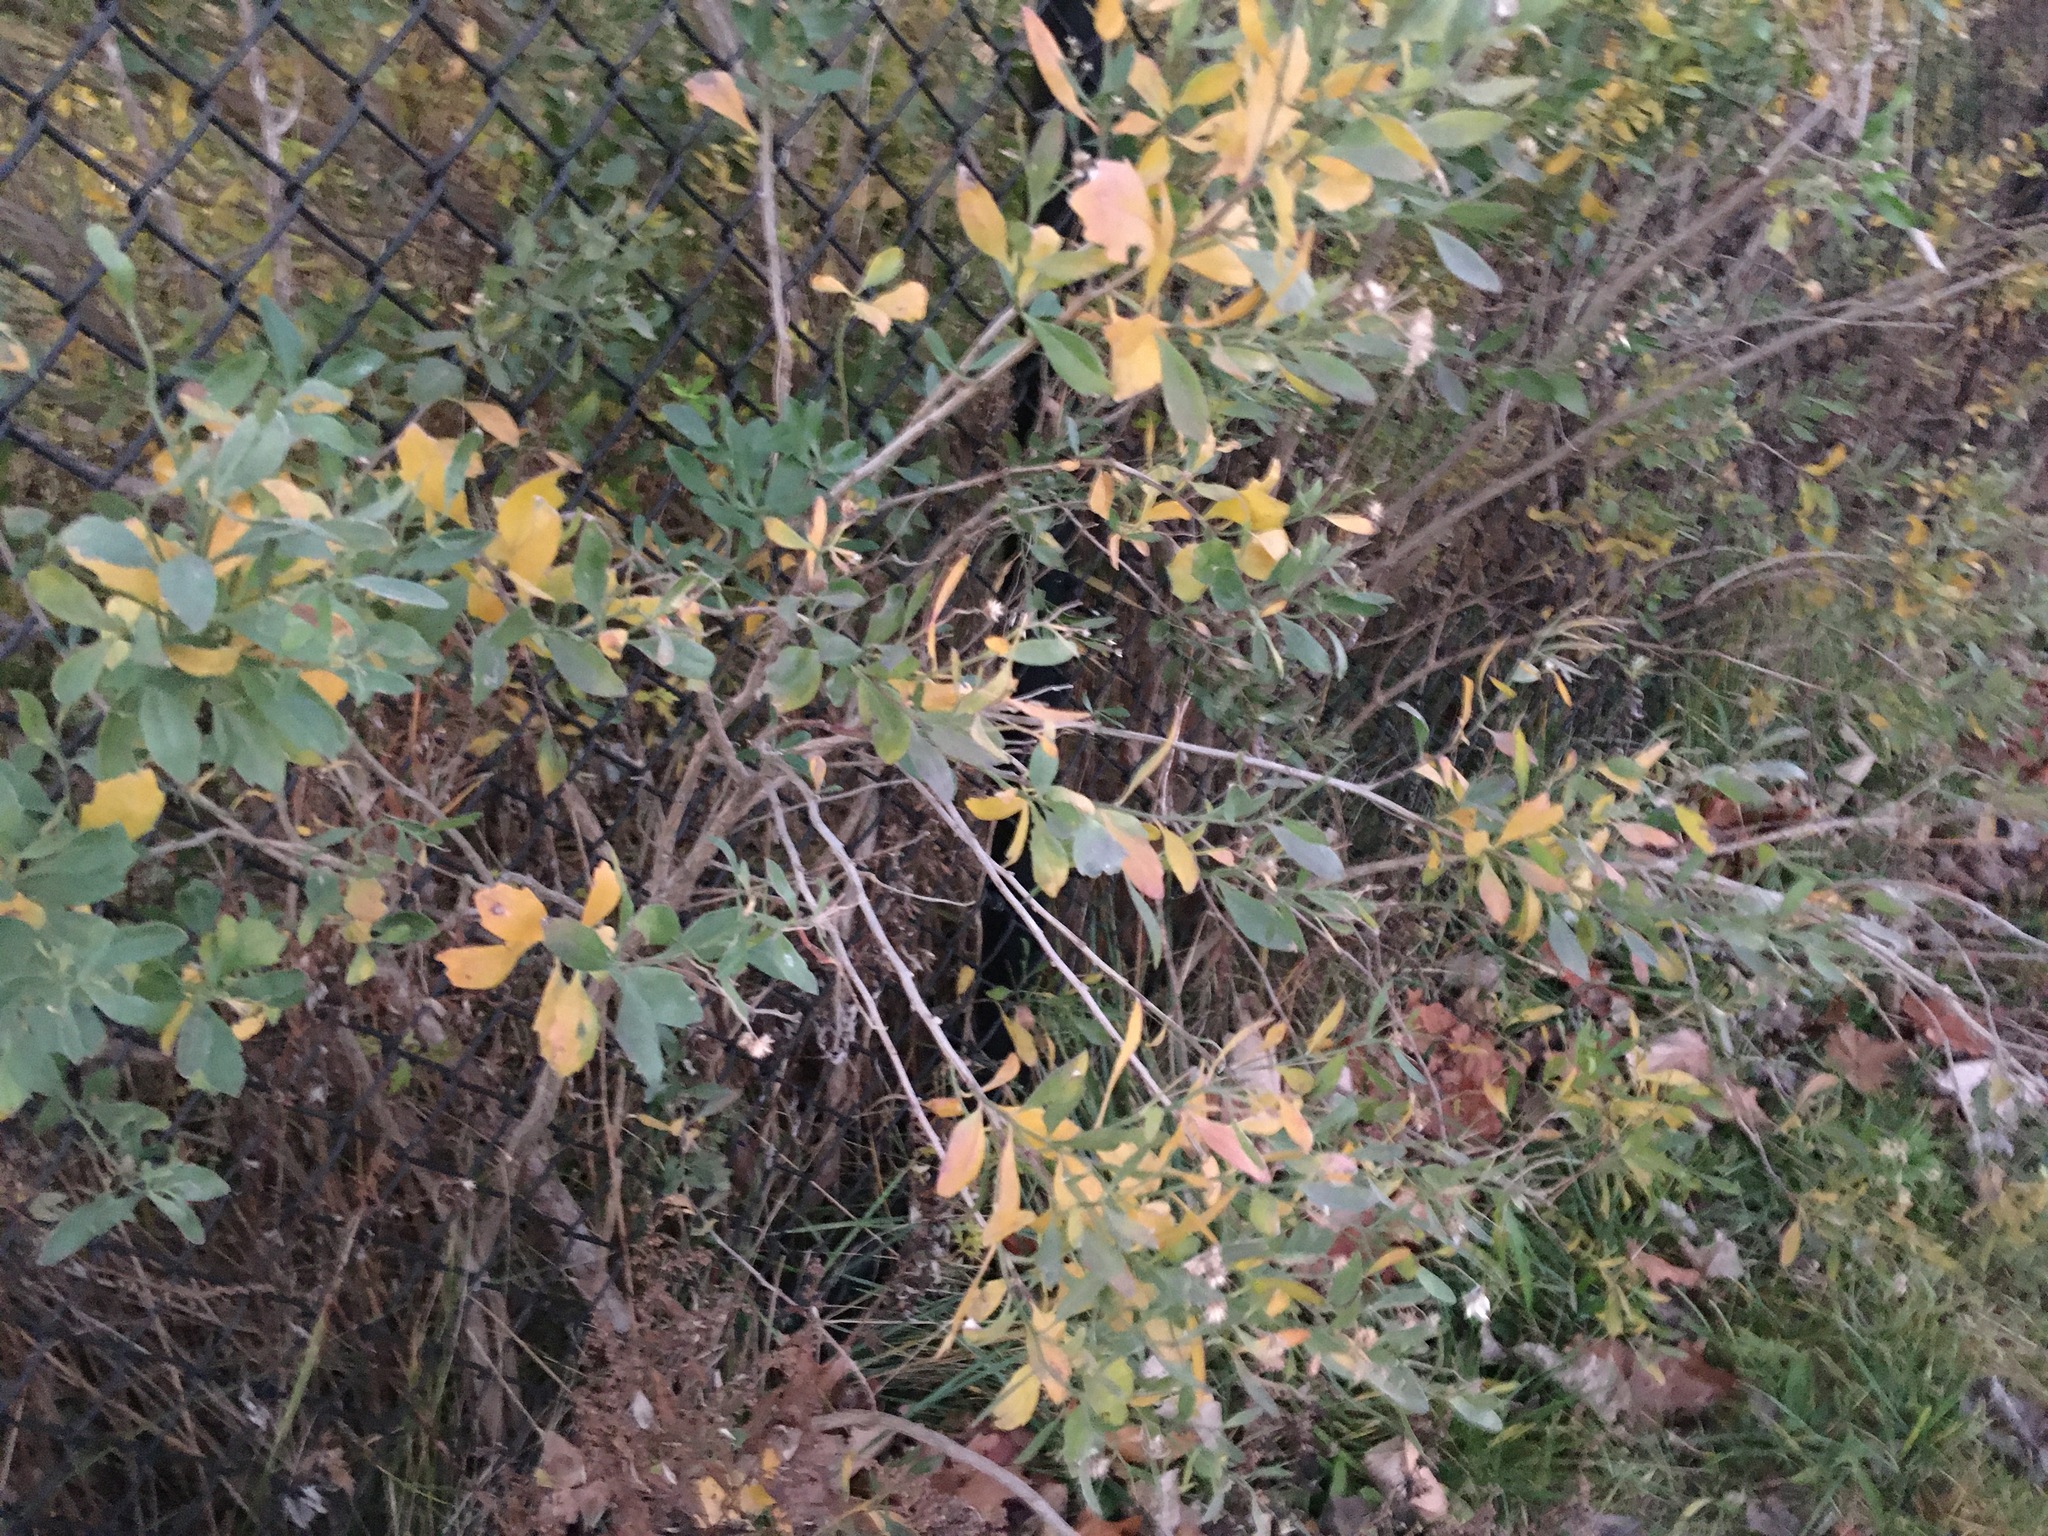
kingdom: Plantae
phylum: Tracheophyta
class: Magnoliopsida
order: Asterales
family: Asteraceae
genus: Baccharis
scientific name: Baccharis halimifolia
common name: Eastern baccharis
